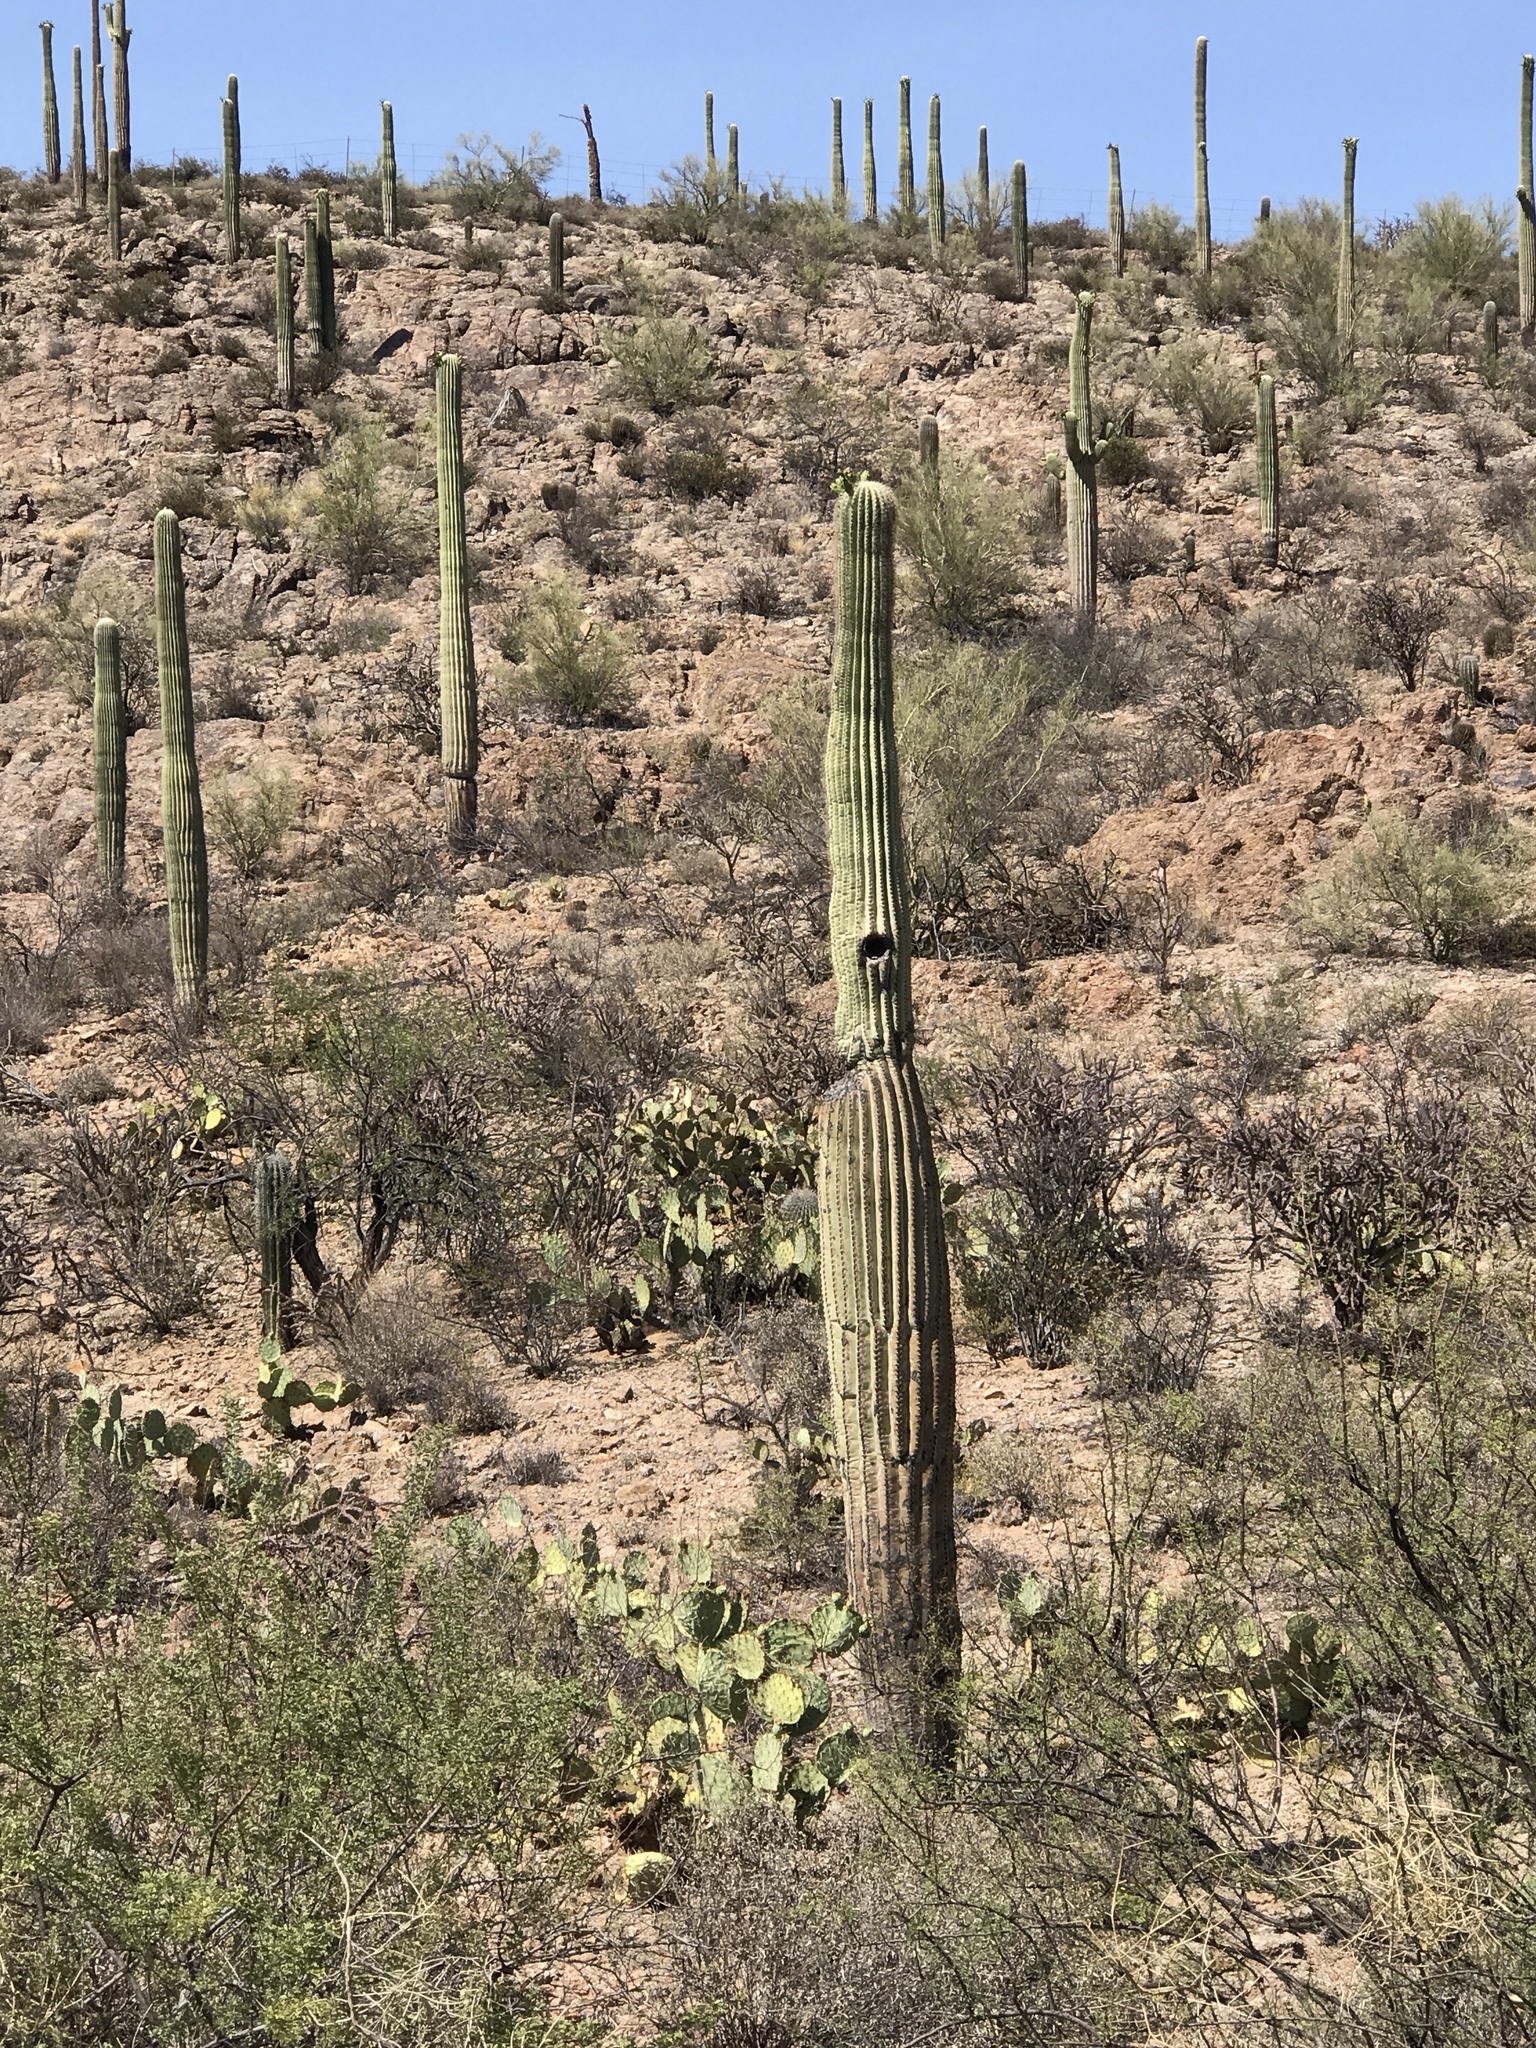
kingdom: Plantae
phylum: Tracheophyta
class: Magnoliopsida
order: Caryophyllales
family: Cactaceae
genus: Carnegiea
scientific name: Carnegiea gigantea
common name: Saguaro
